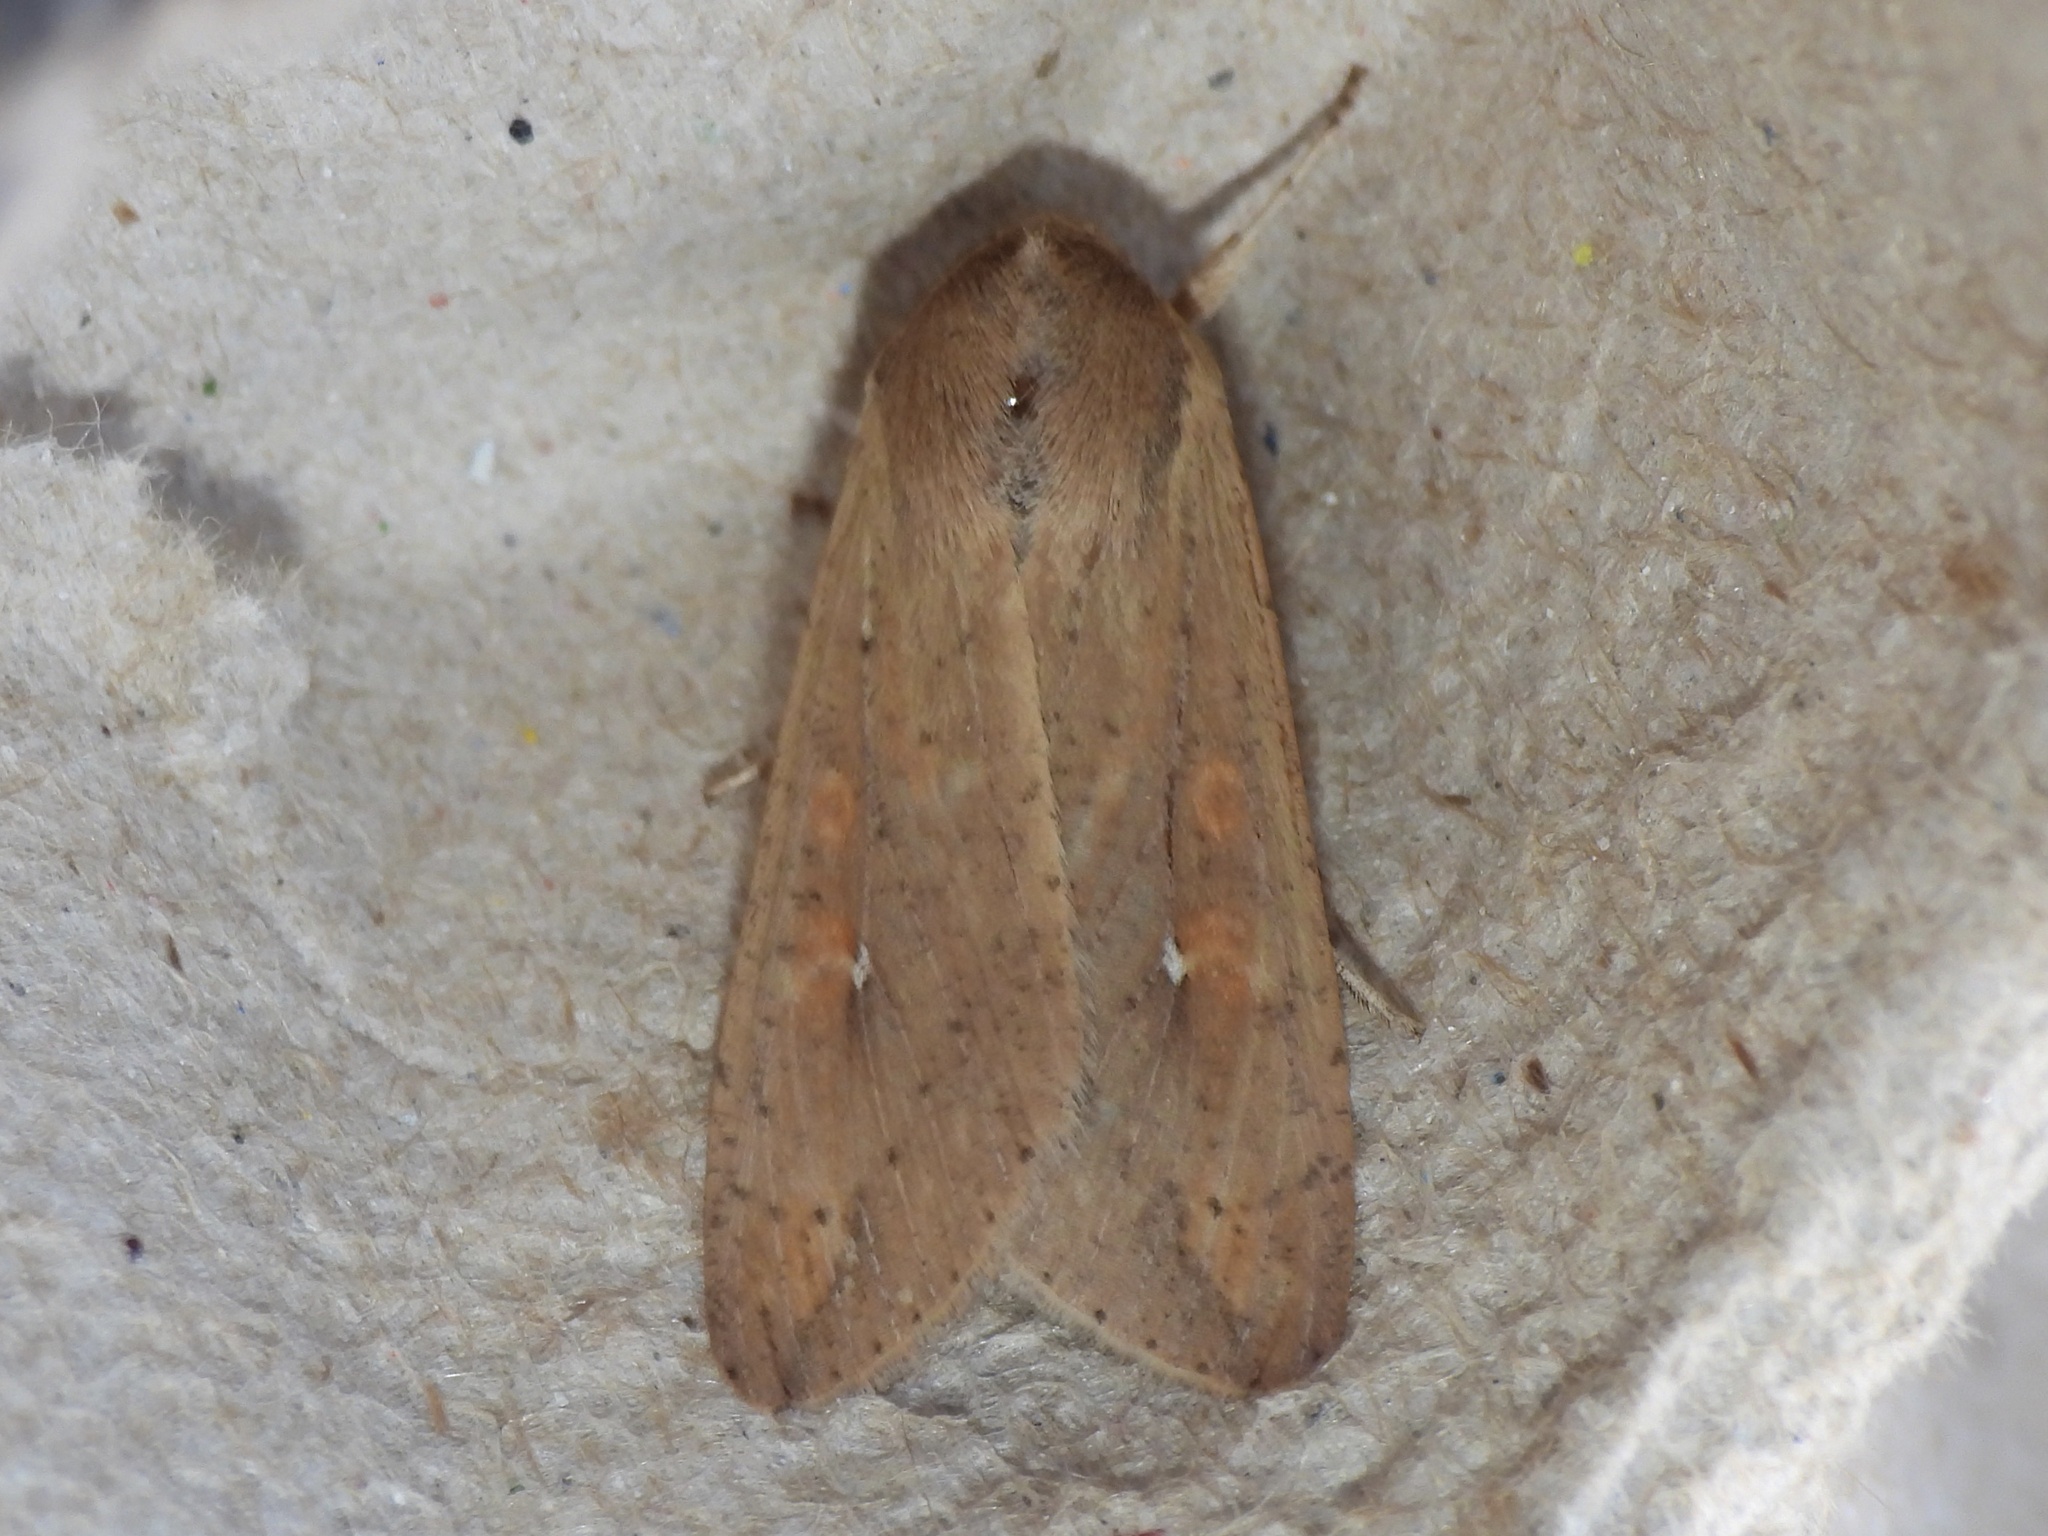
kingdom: Animalia
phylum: Arthropoda
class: Insecta
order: Lepidoptera
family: Noctuidae
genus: Mythimna
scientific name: Mythimna unipuncta
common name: White-speck
